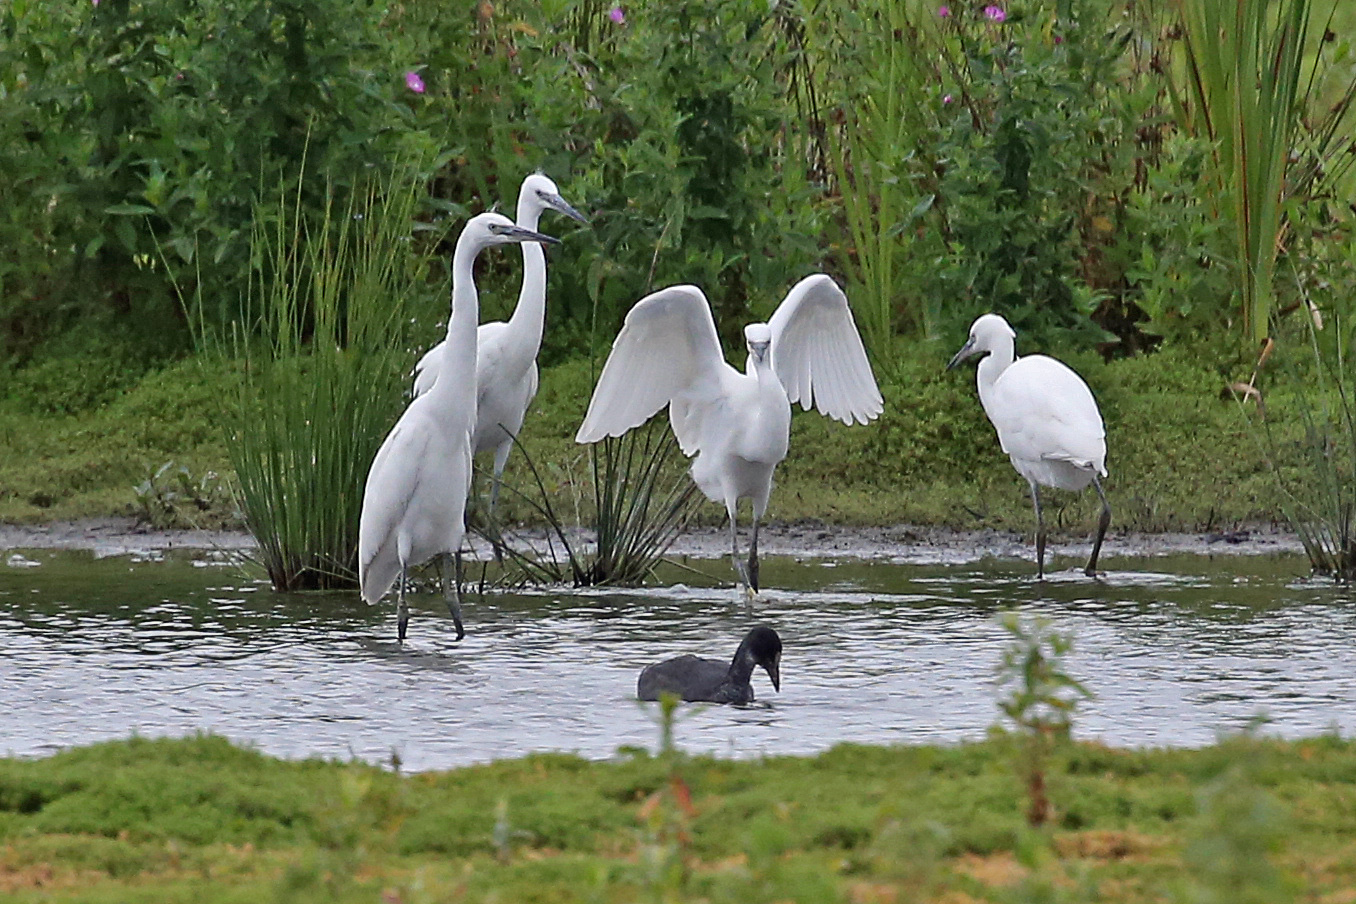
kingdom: Animalia
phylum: Chordata
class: Aves
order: Pelecaniformes
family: Ardeidae
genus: Egretta
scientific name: Egretta garzetta
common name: Little egret
